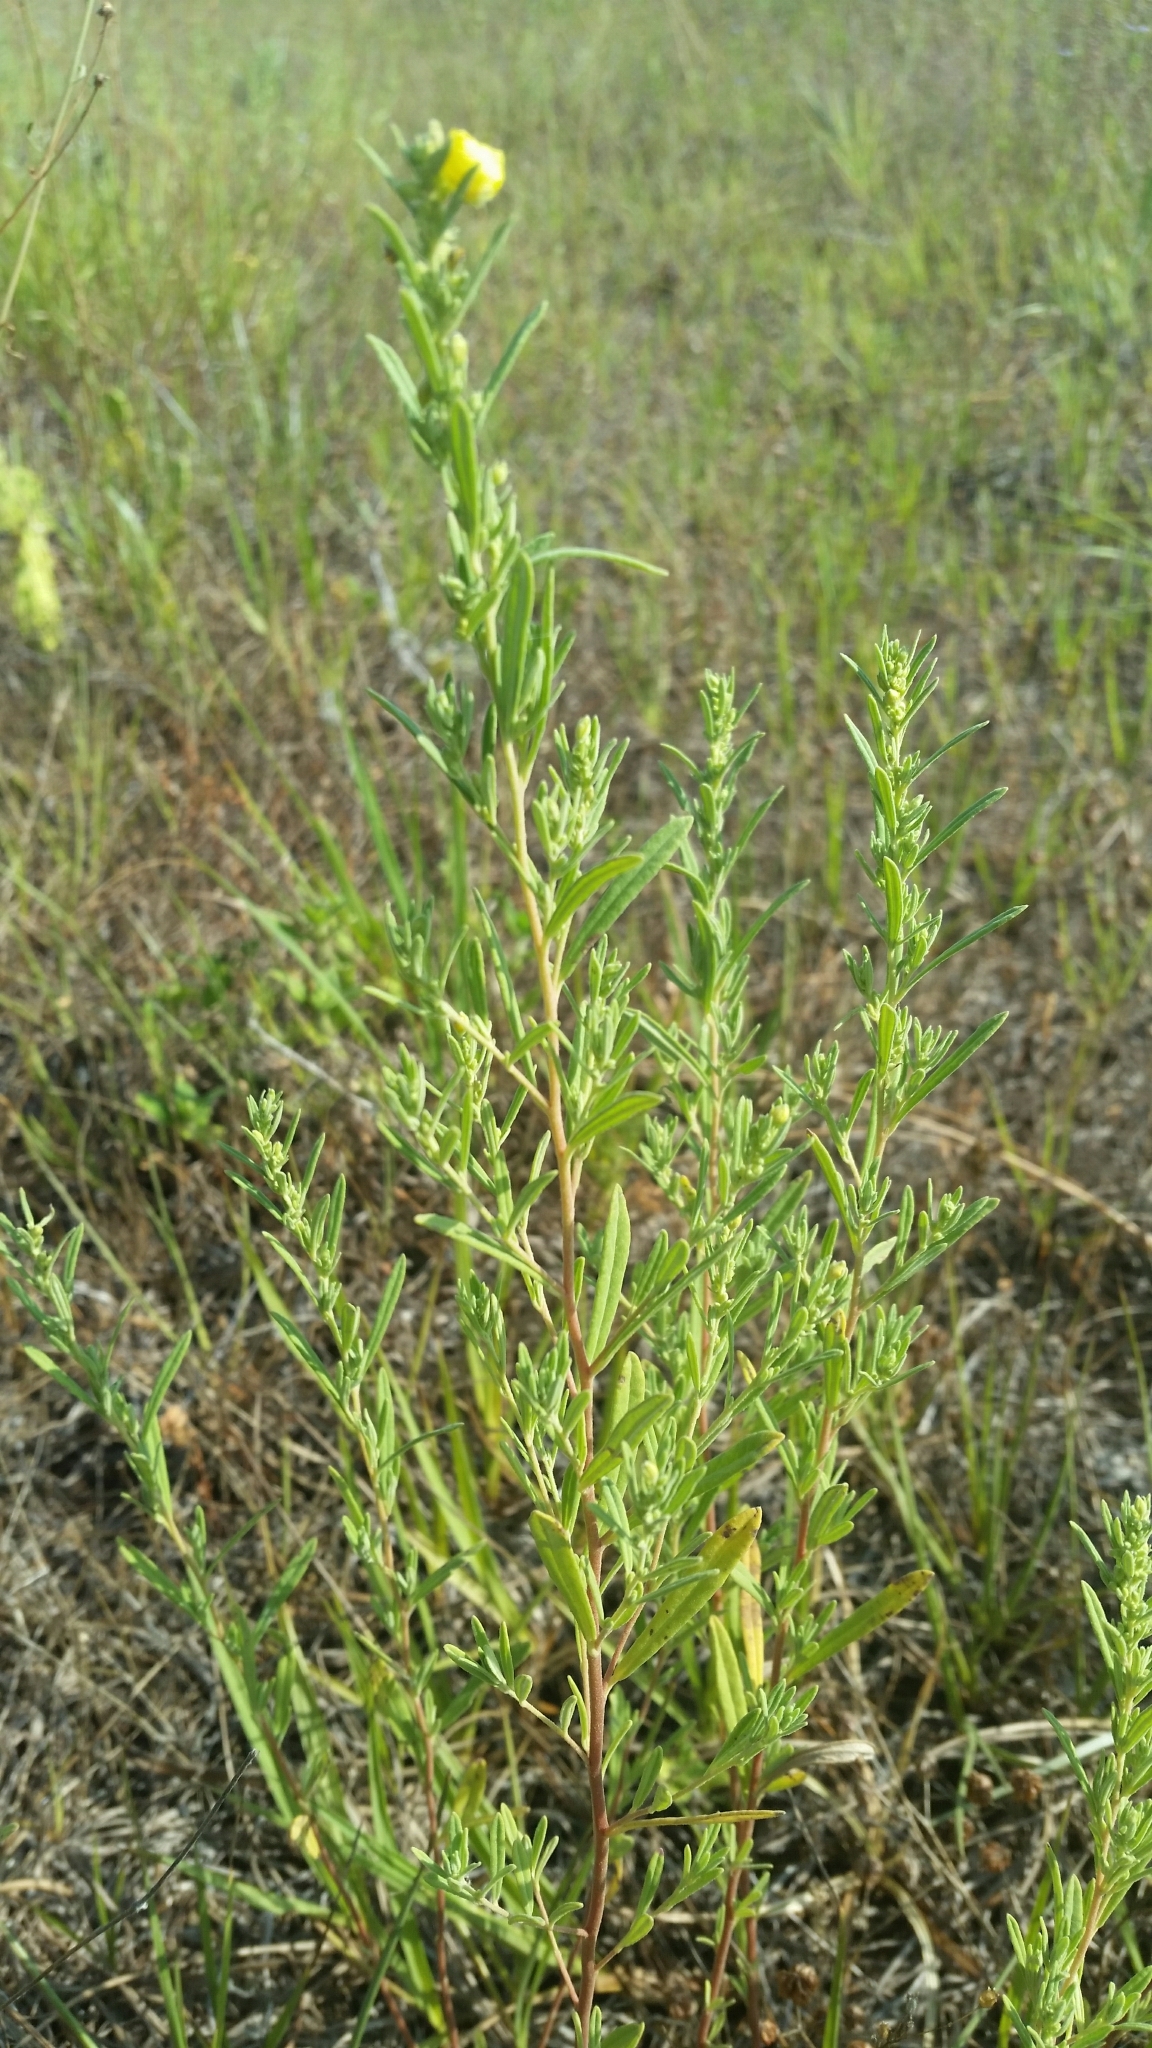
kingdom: Plantae
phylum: Tracheophyta
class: Magnoliopsida
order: Malvales
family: Cistaceae
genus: Crocanthemum
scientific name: Crocanthemum rosmarinifolium
